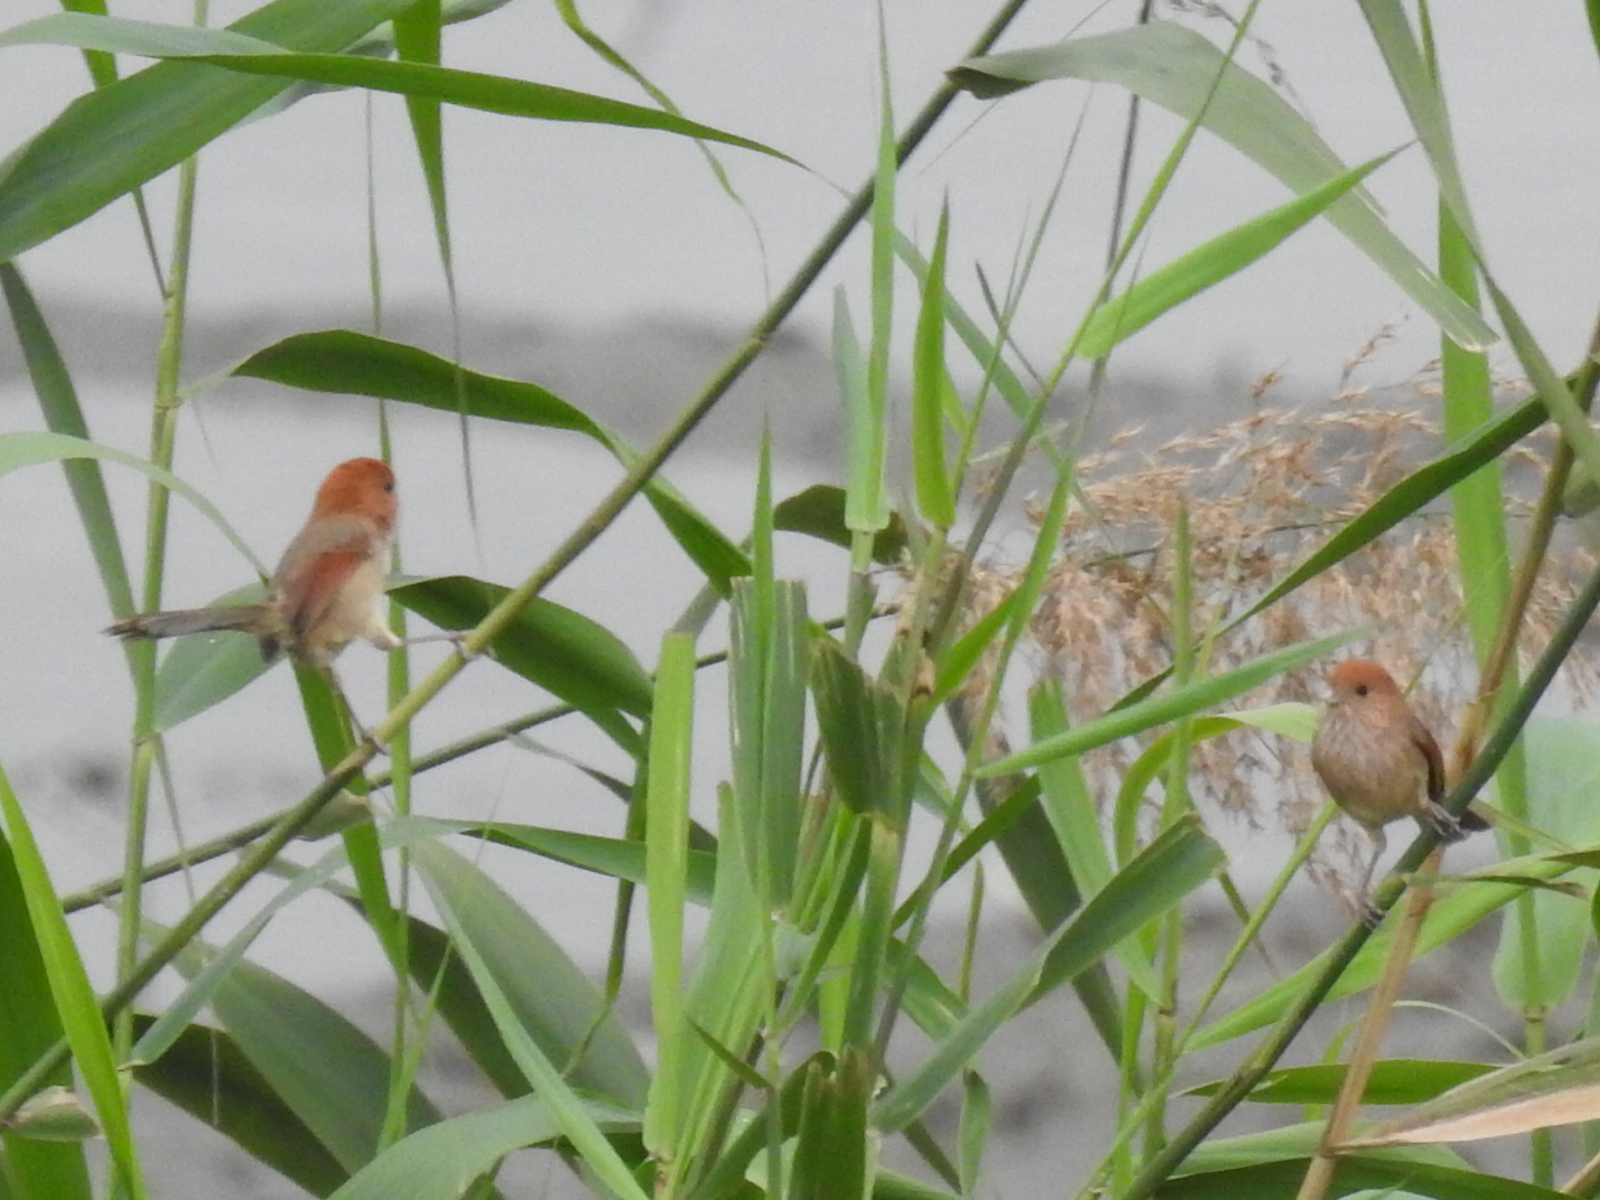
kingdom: Animalia
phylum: Chordata
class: Aves
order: Passeriformes
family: Sylviidae
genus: Sinosuthora
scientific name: Sinosuthora webbiana
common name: Vinous-throated parrotbill
